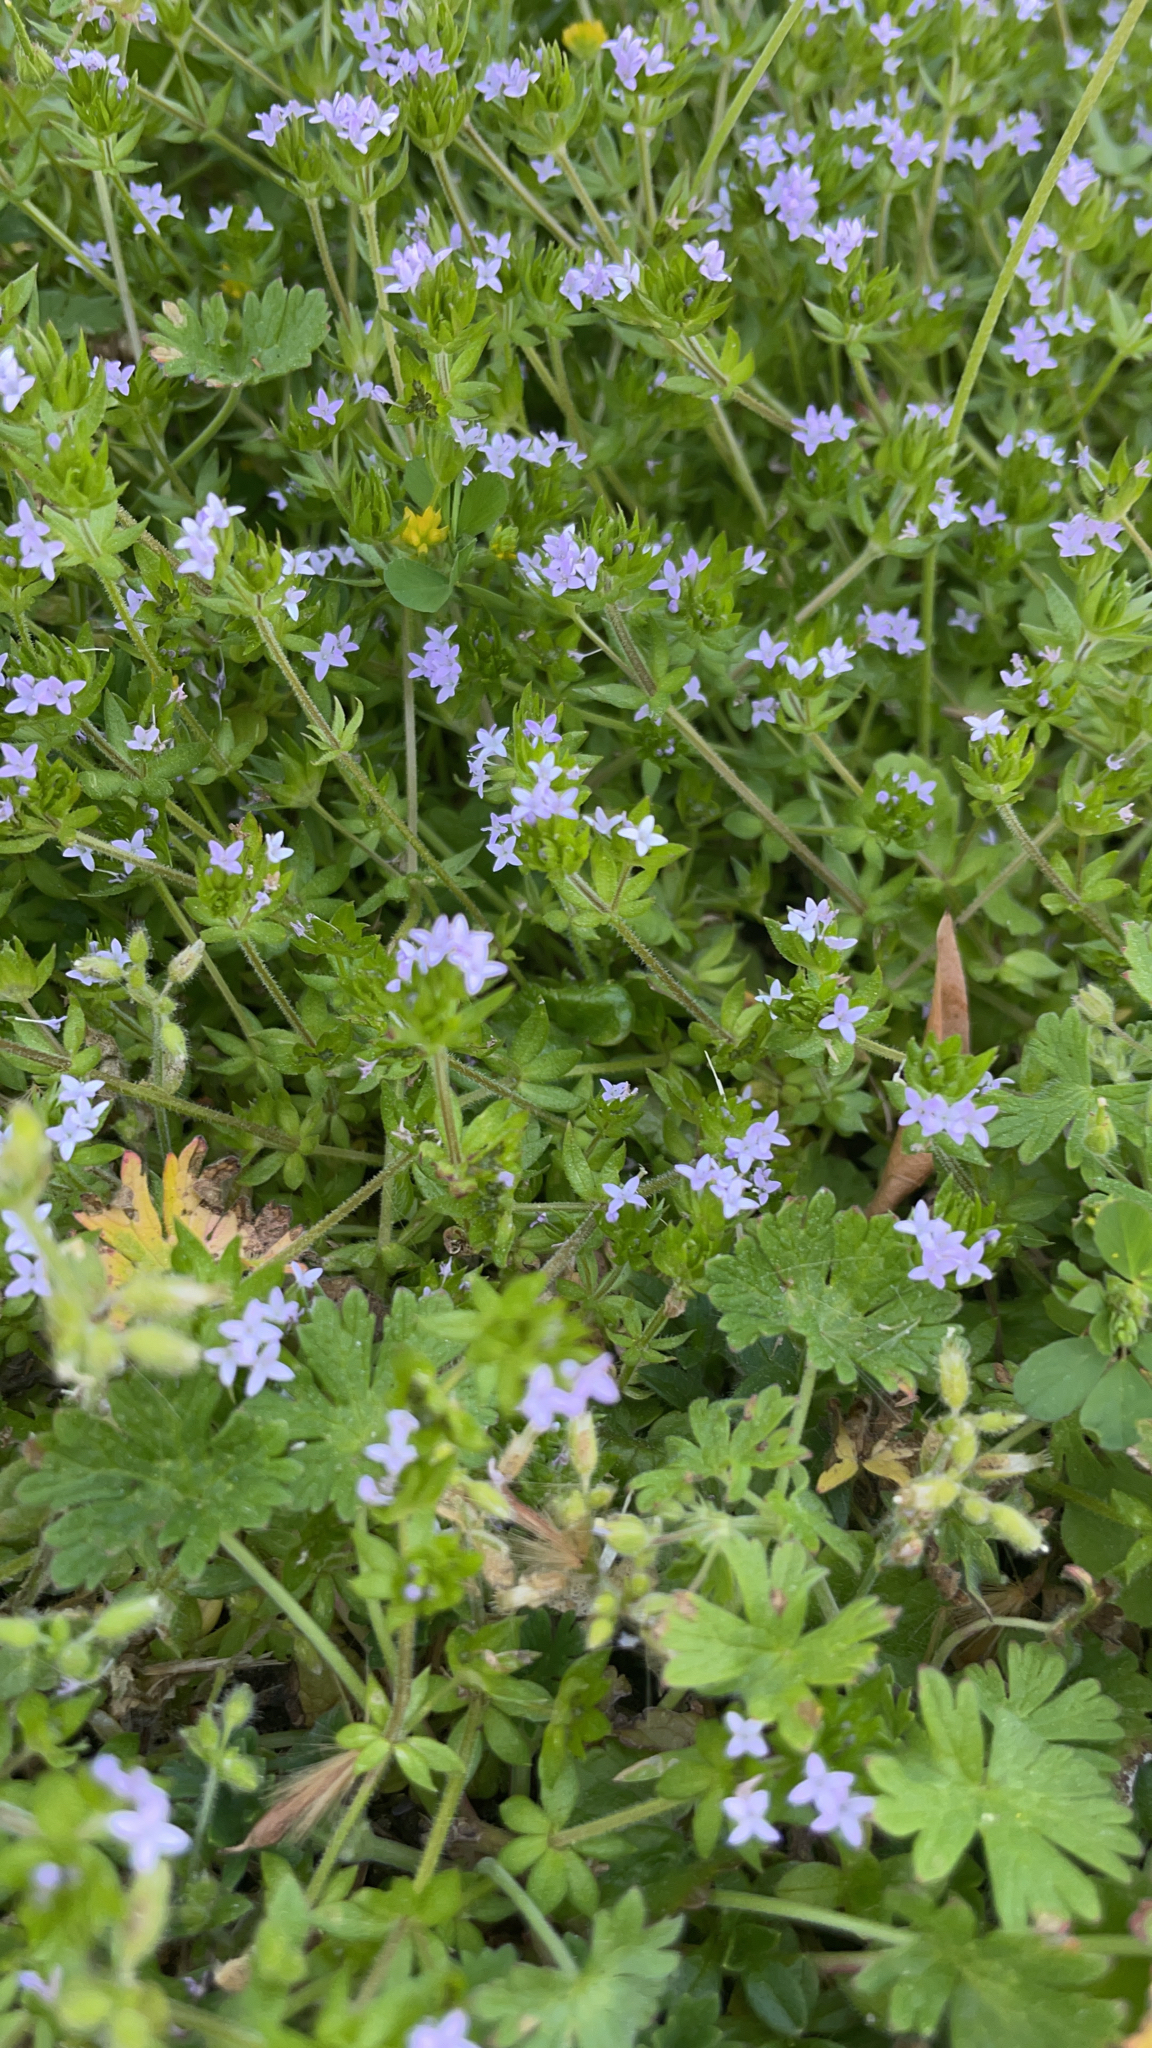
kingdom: Plantae
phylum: Tracheophyta
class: Magnoliopsida
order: Gentianales
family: Rubiaceae
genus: Sherardia
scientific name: Sherardia arvensis
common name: Field madder
